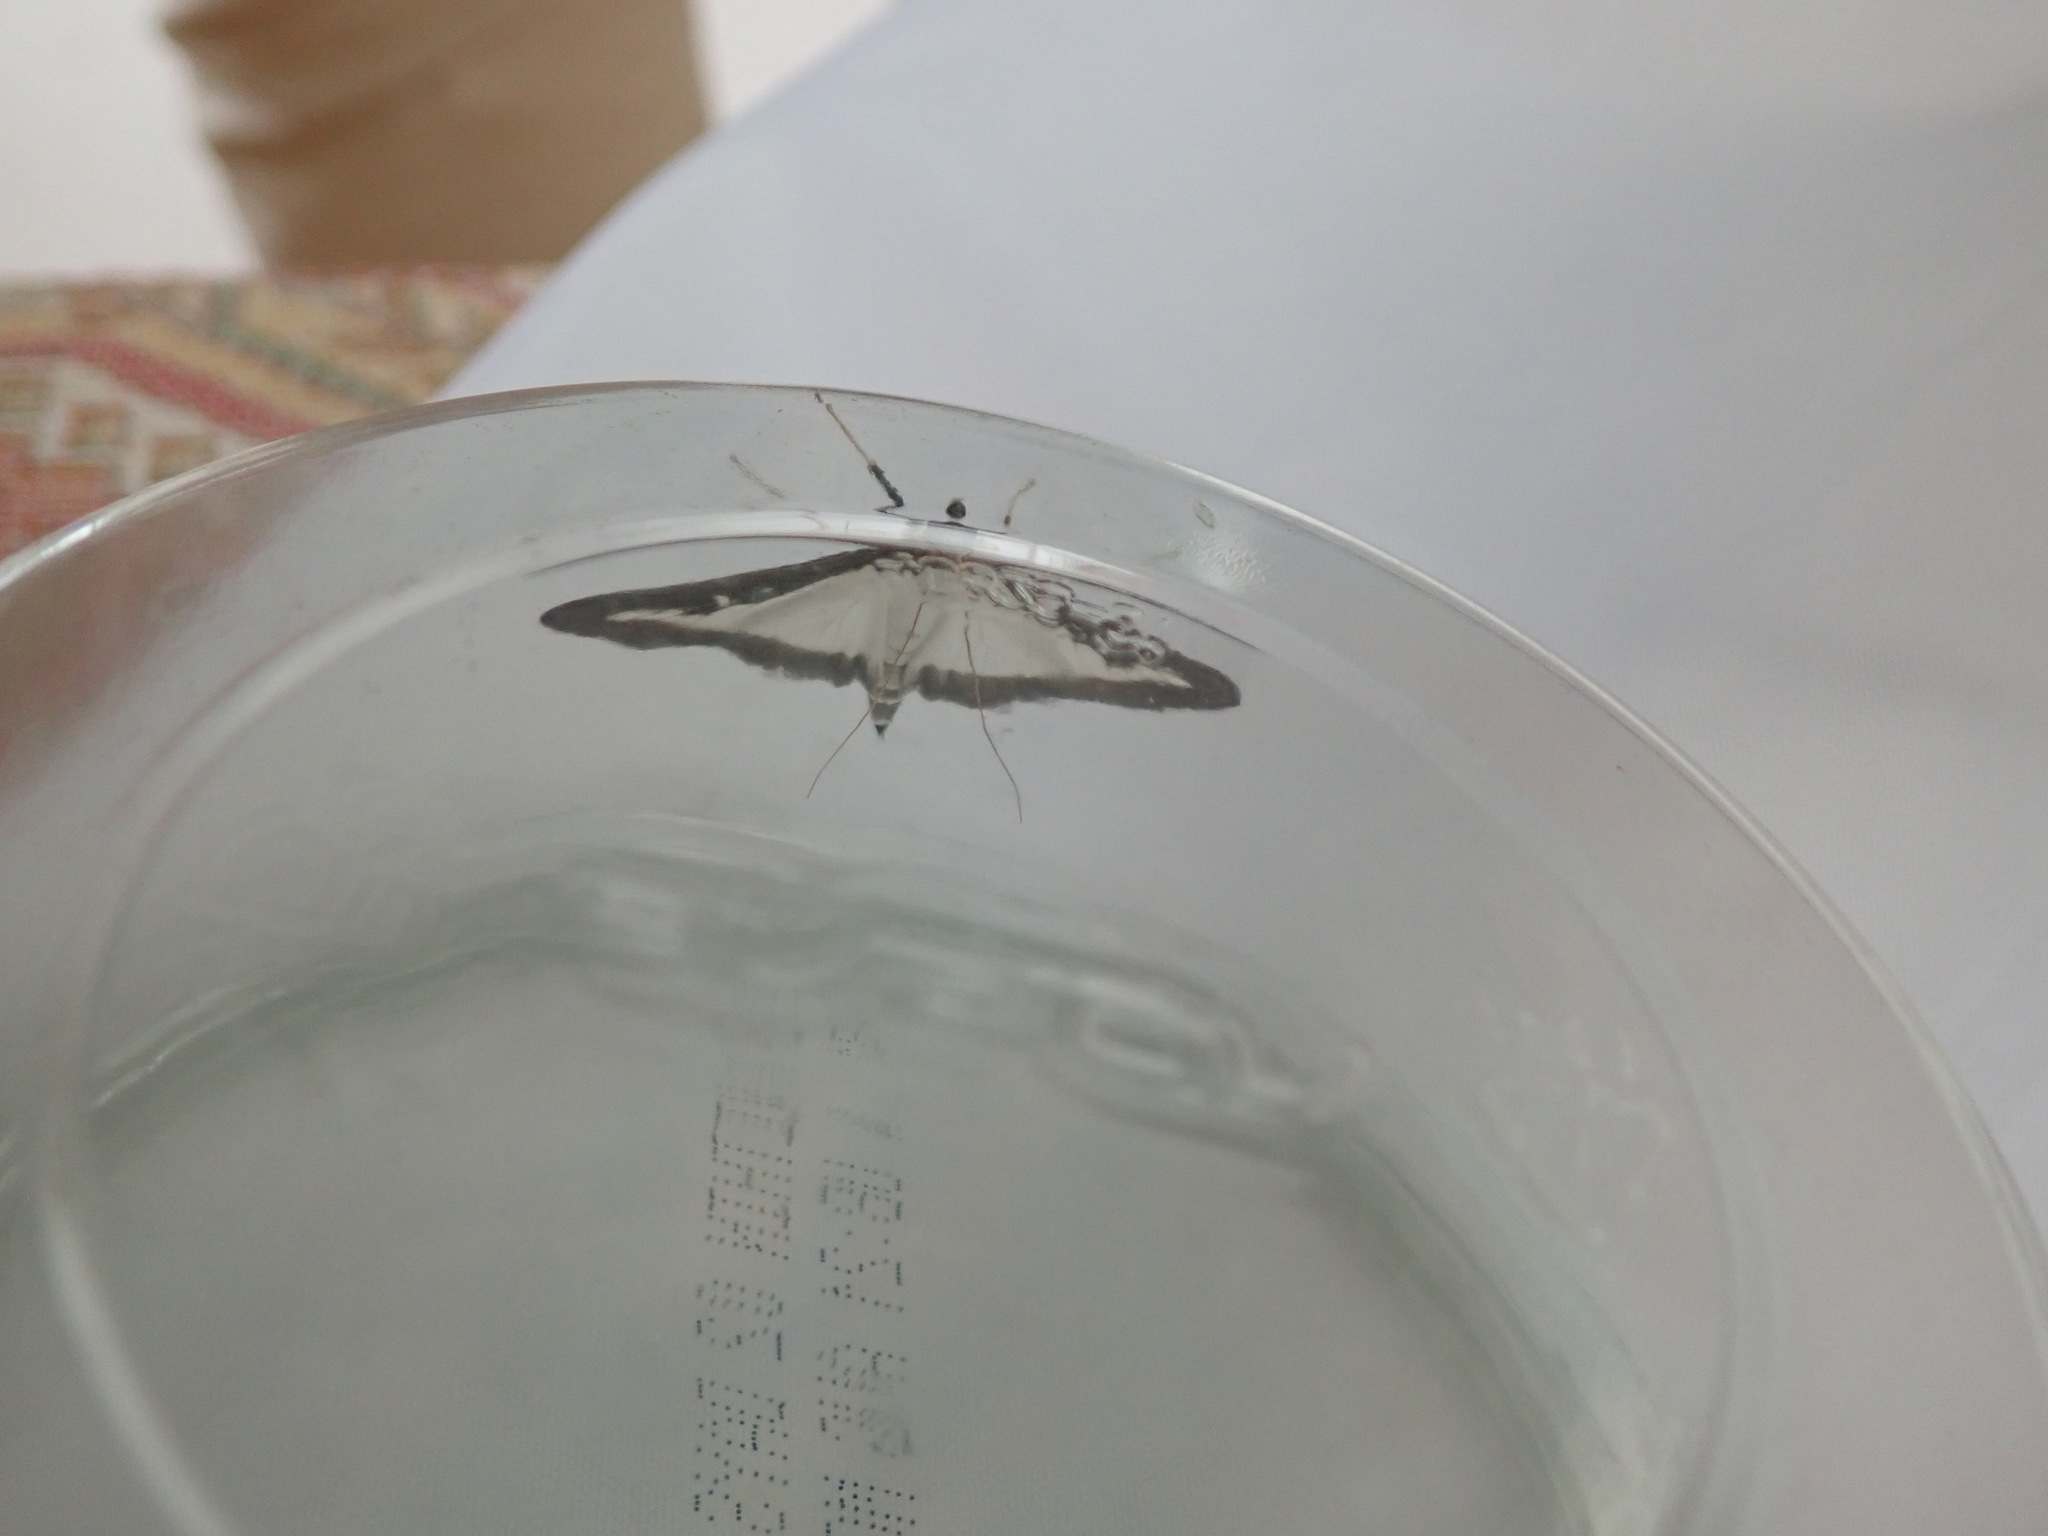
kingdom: Animalia
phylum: Arthropoda
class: Insecta
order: Lepidoptera
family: Crambidae
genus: Cydalima
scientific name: Cydalima perspectalis
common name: Box tree moth
